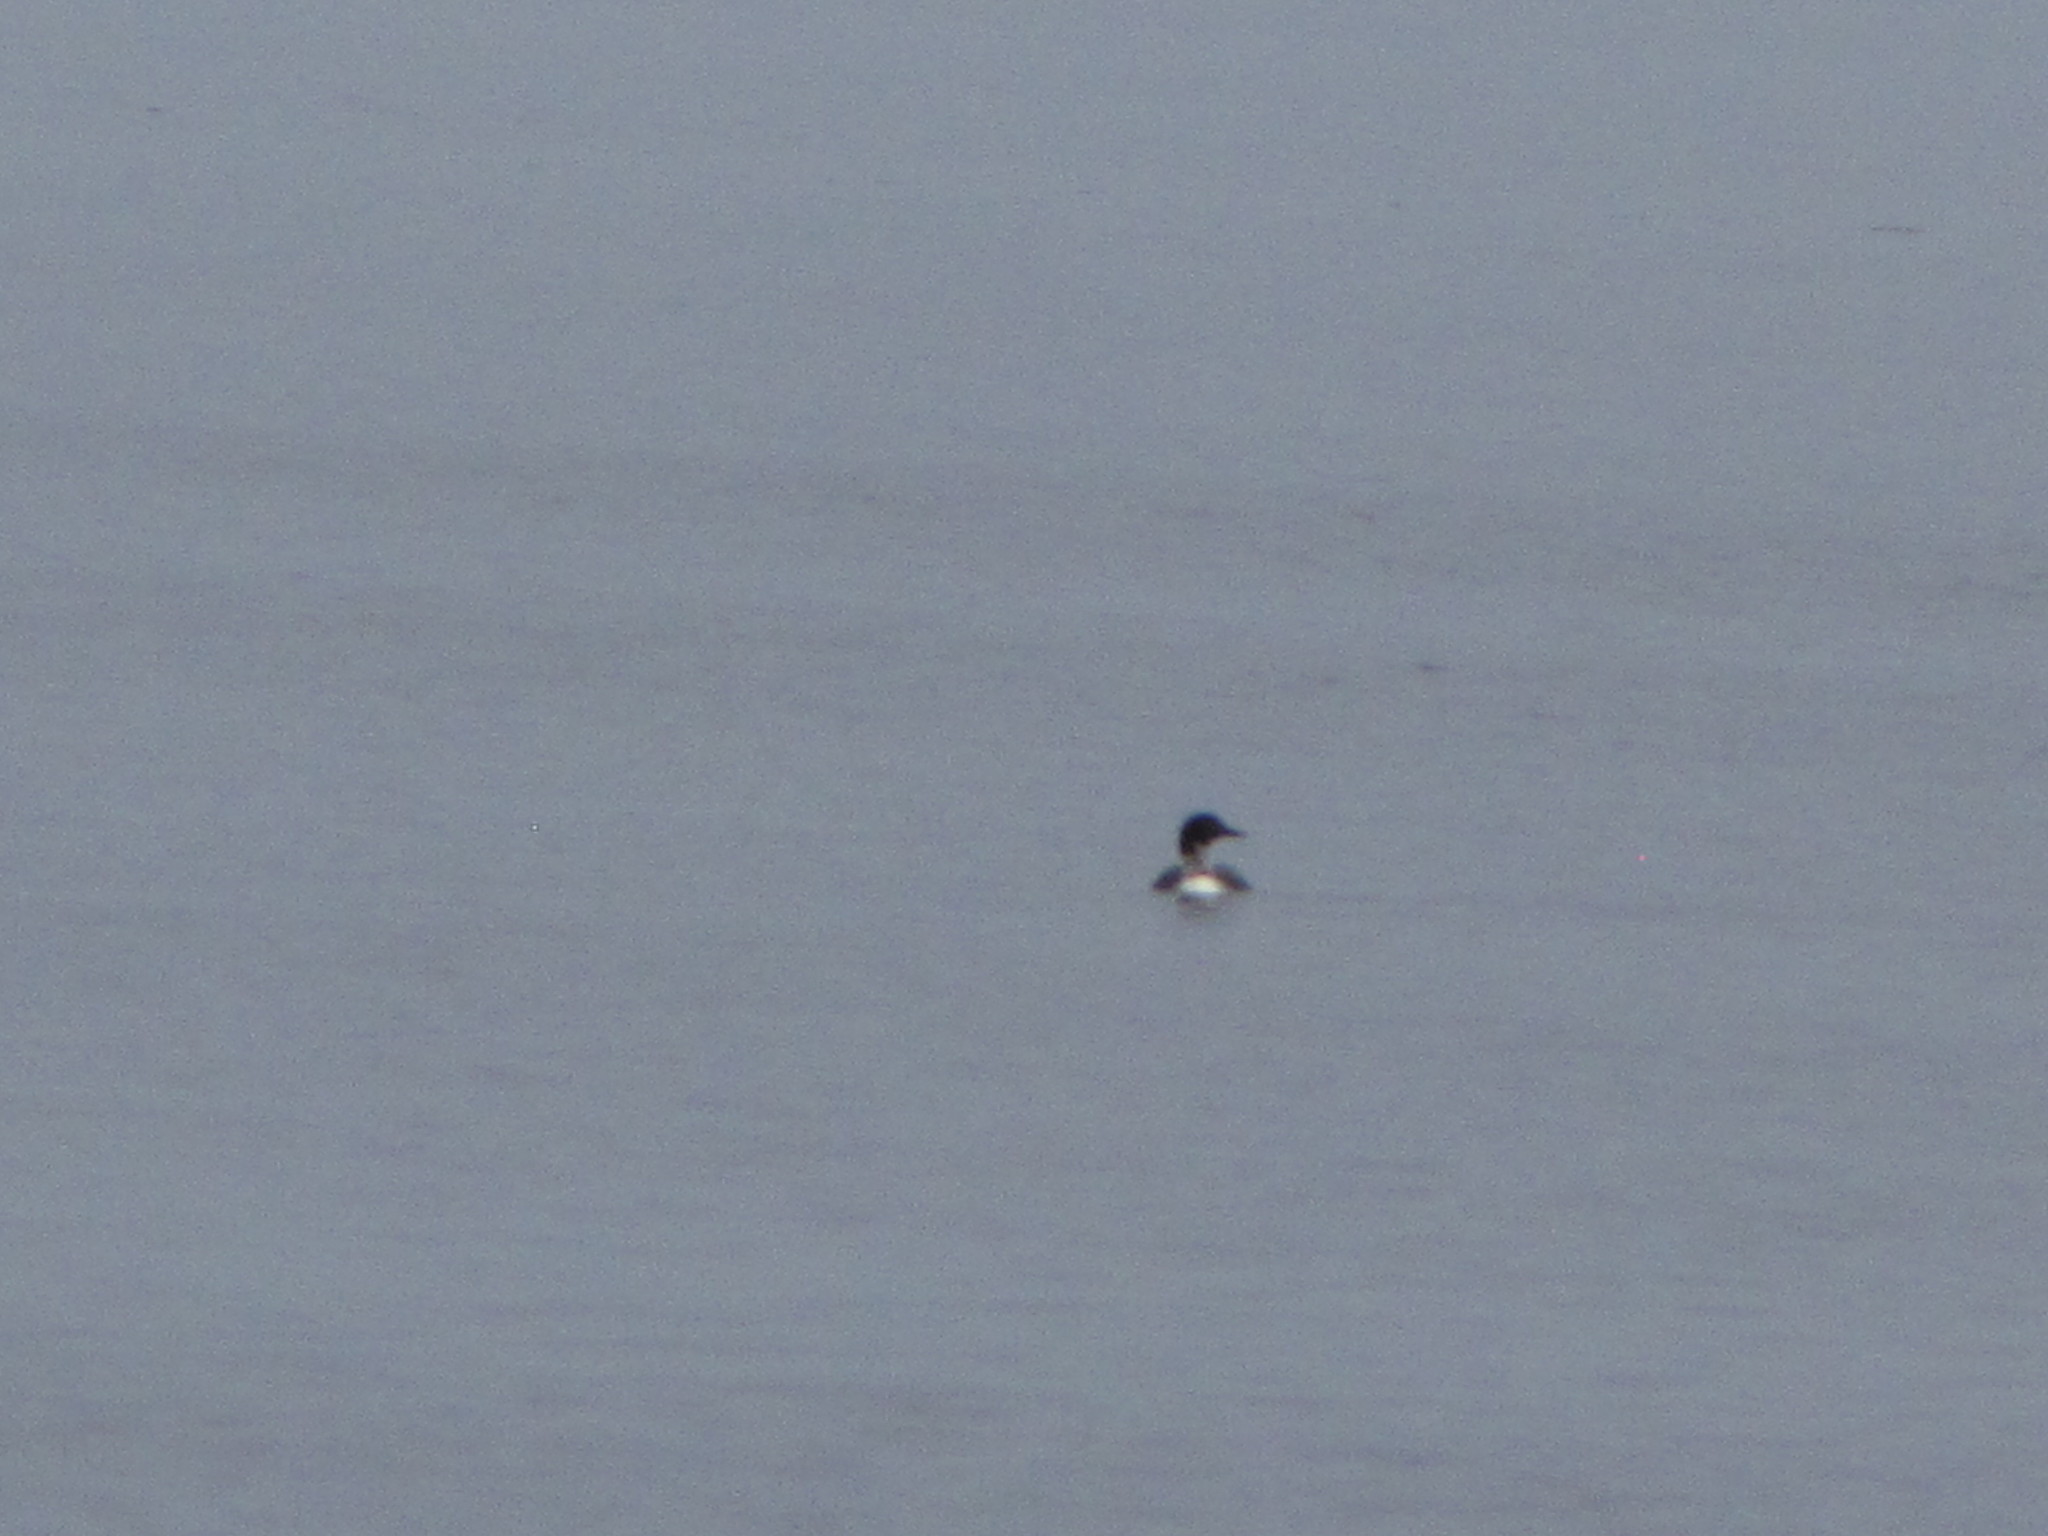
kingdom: Animalia
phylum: Chordata
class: Aves
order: Gaviiformes
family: Gaviidae
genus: Gavia
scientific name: Gavia immer
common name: Common loon
